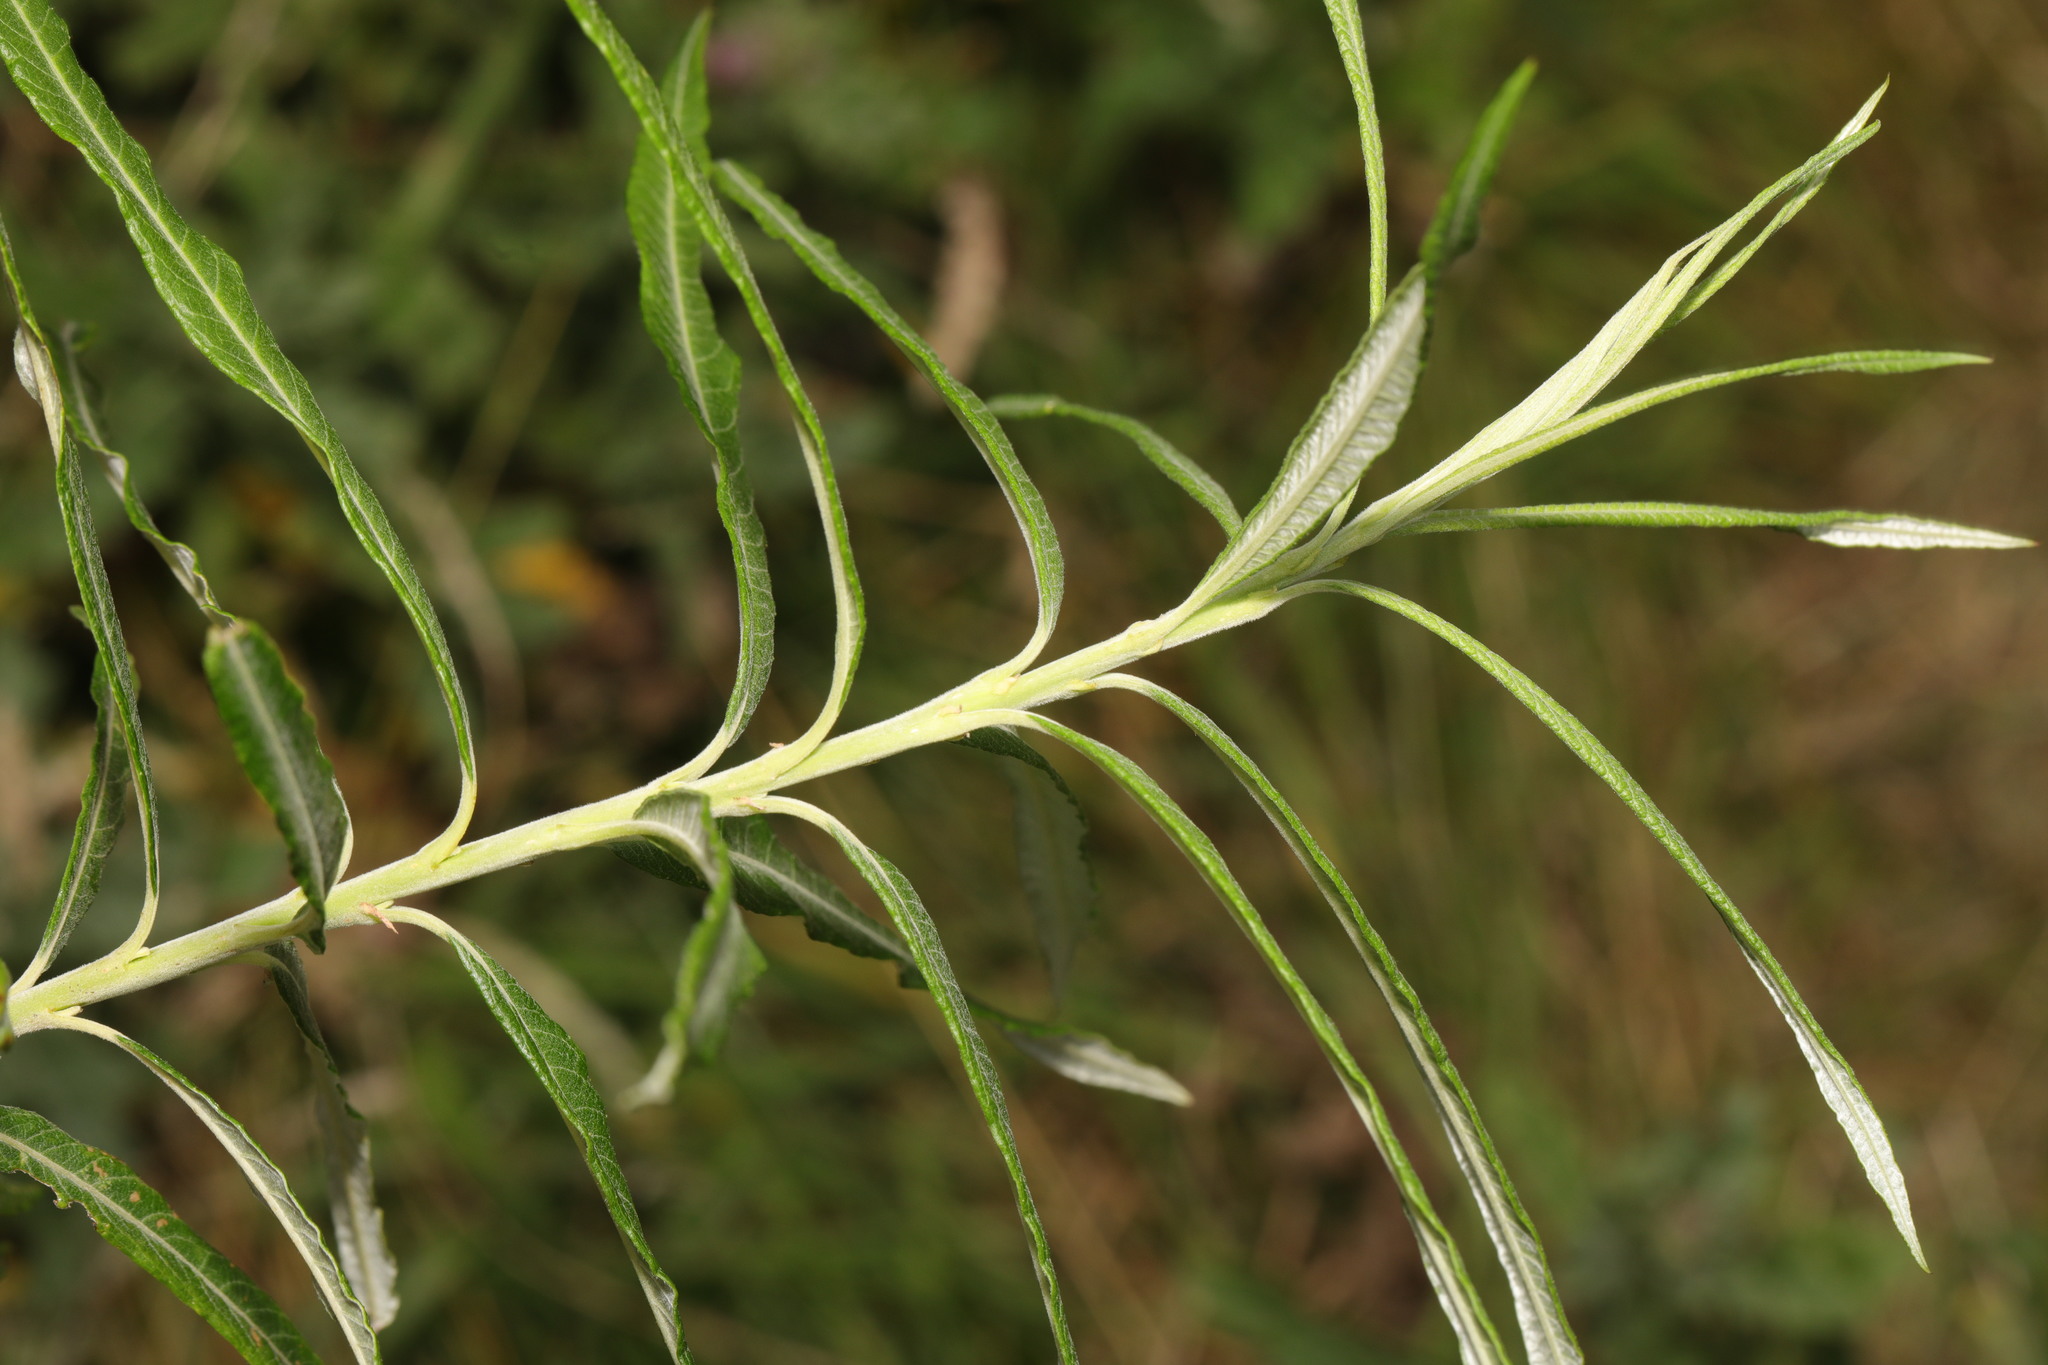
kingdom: Plantae
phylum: Tracheophyta
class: Magnoliopsida
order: Malpighiales
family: Salicaceae
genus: Salix
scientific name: Salix viminalis
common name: Osier
